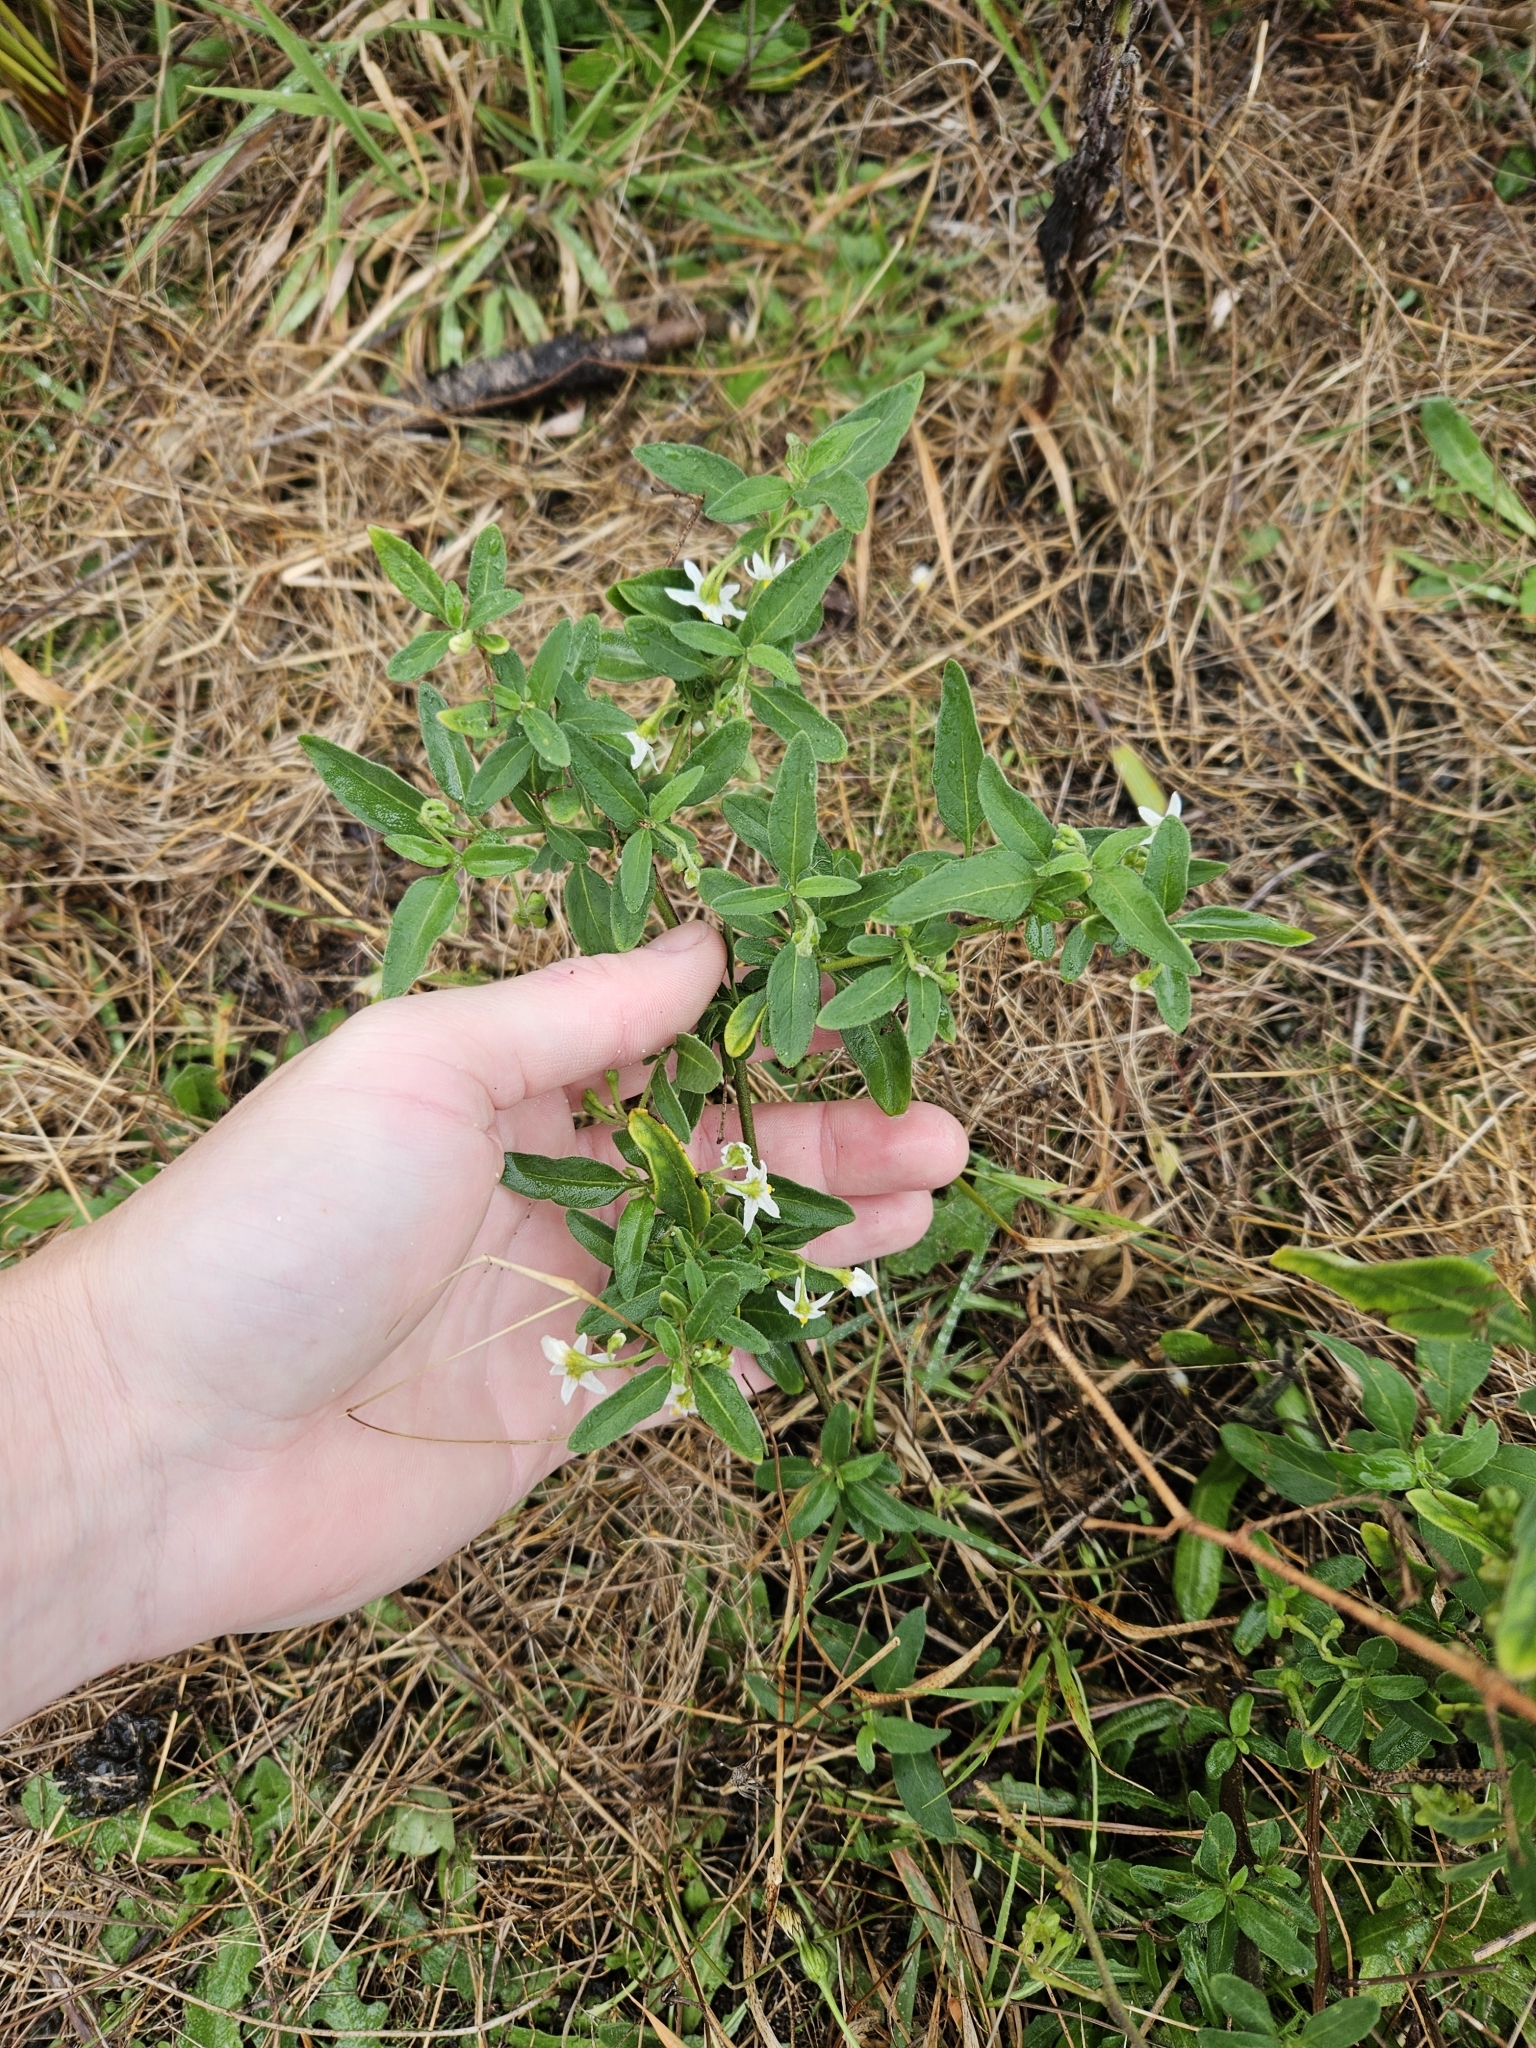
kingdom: Plantae
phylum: Tracheophyta
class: Magnoliopsida
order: Solanales
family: Solanaceae
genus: Solanum
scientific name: Solanum chenopodioides
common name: Tall nightshade
